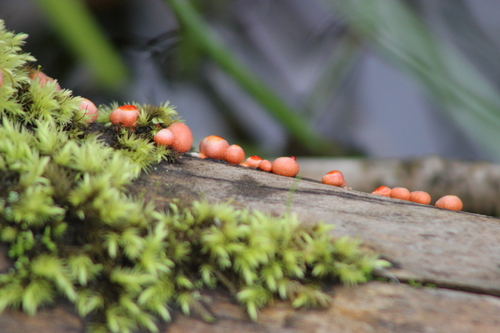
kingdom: Protozoa
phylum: Mycetozoa
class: Myxomycetes
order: Cribrariales
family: Tubiferaceae
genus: Lycogala
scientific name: Lycogala epidendrum
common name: Wolf's milk
